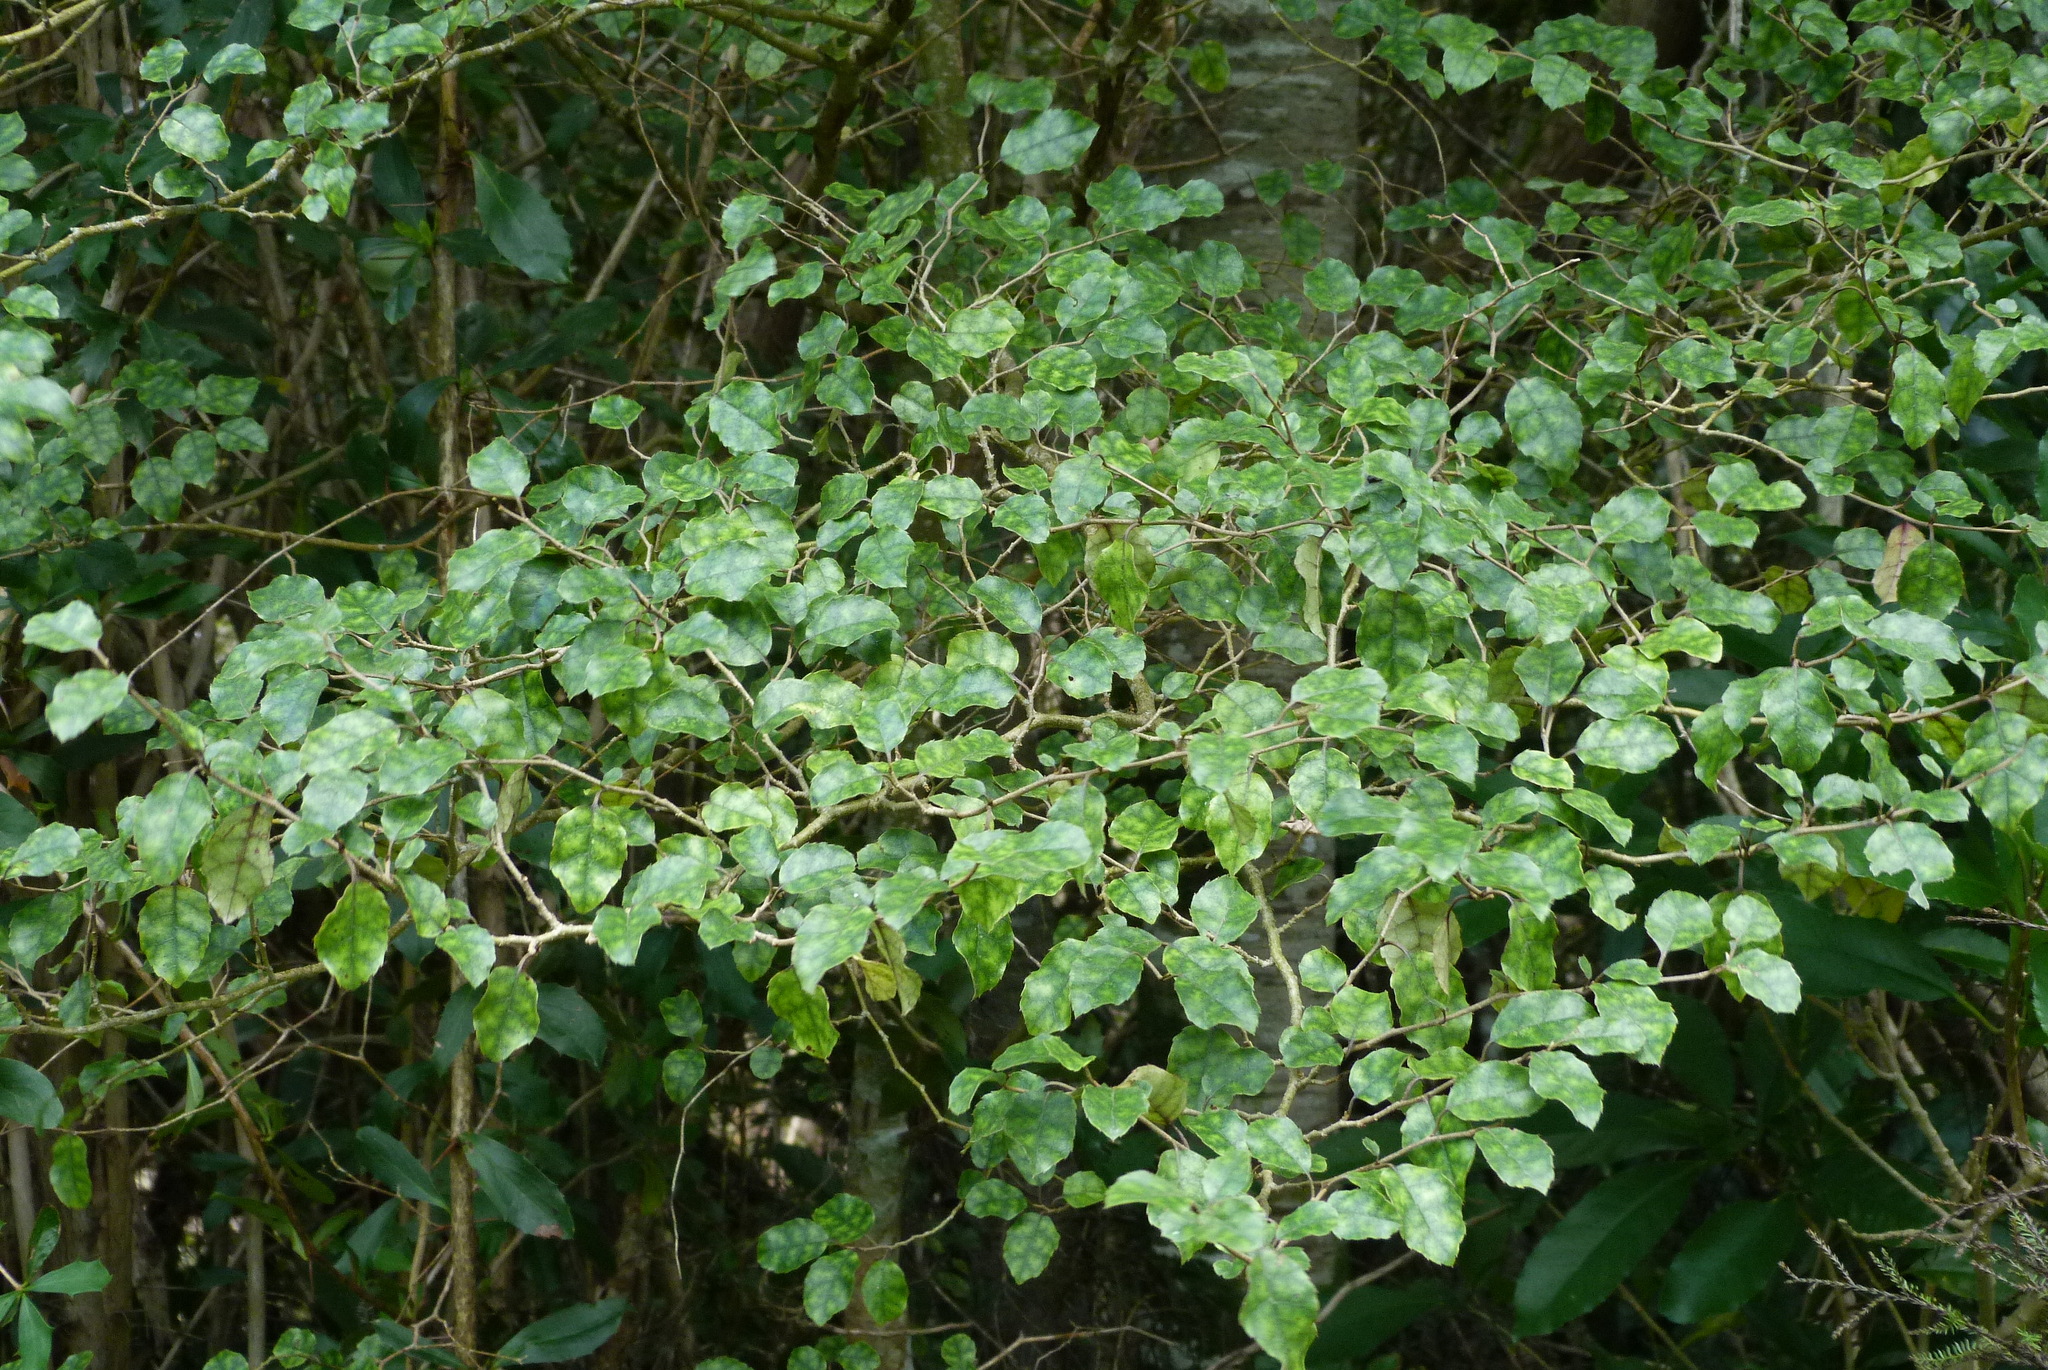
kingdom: Plantae
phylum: Tracheophyta
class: Magnoliopsida
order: Asterales
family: Rousseaceae
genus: Carpodetus
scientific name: Carpodetus serratus
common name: White mapau
